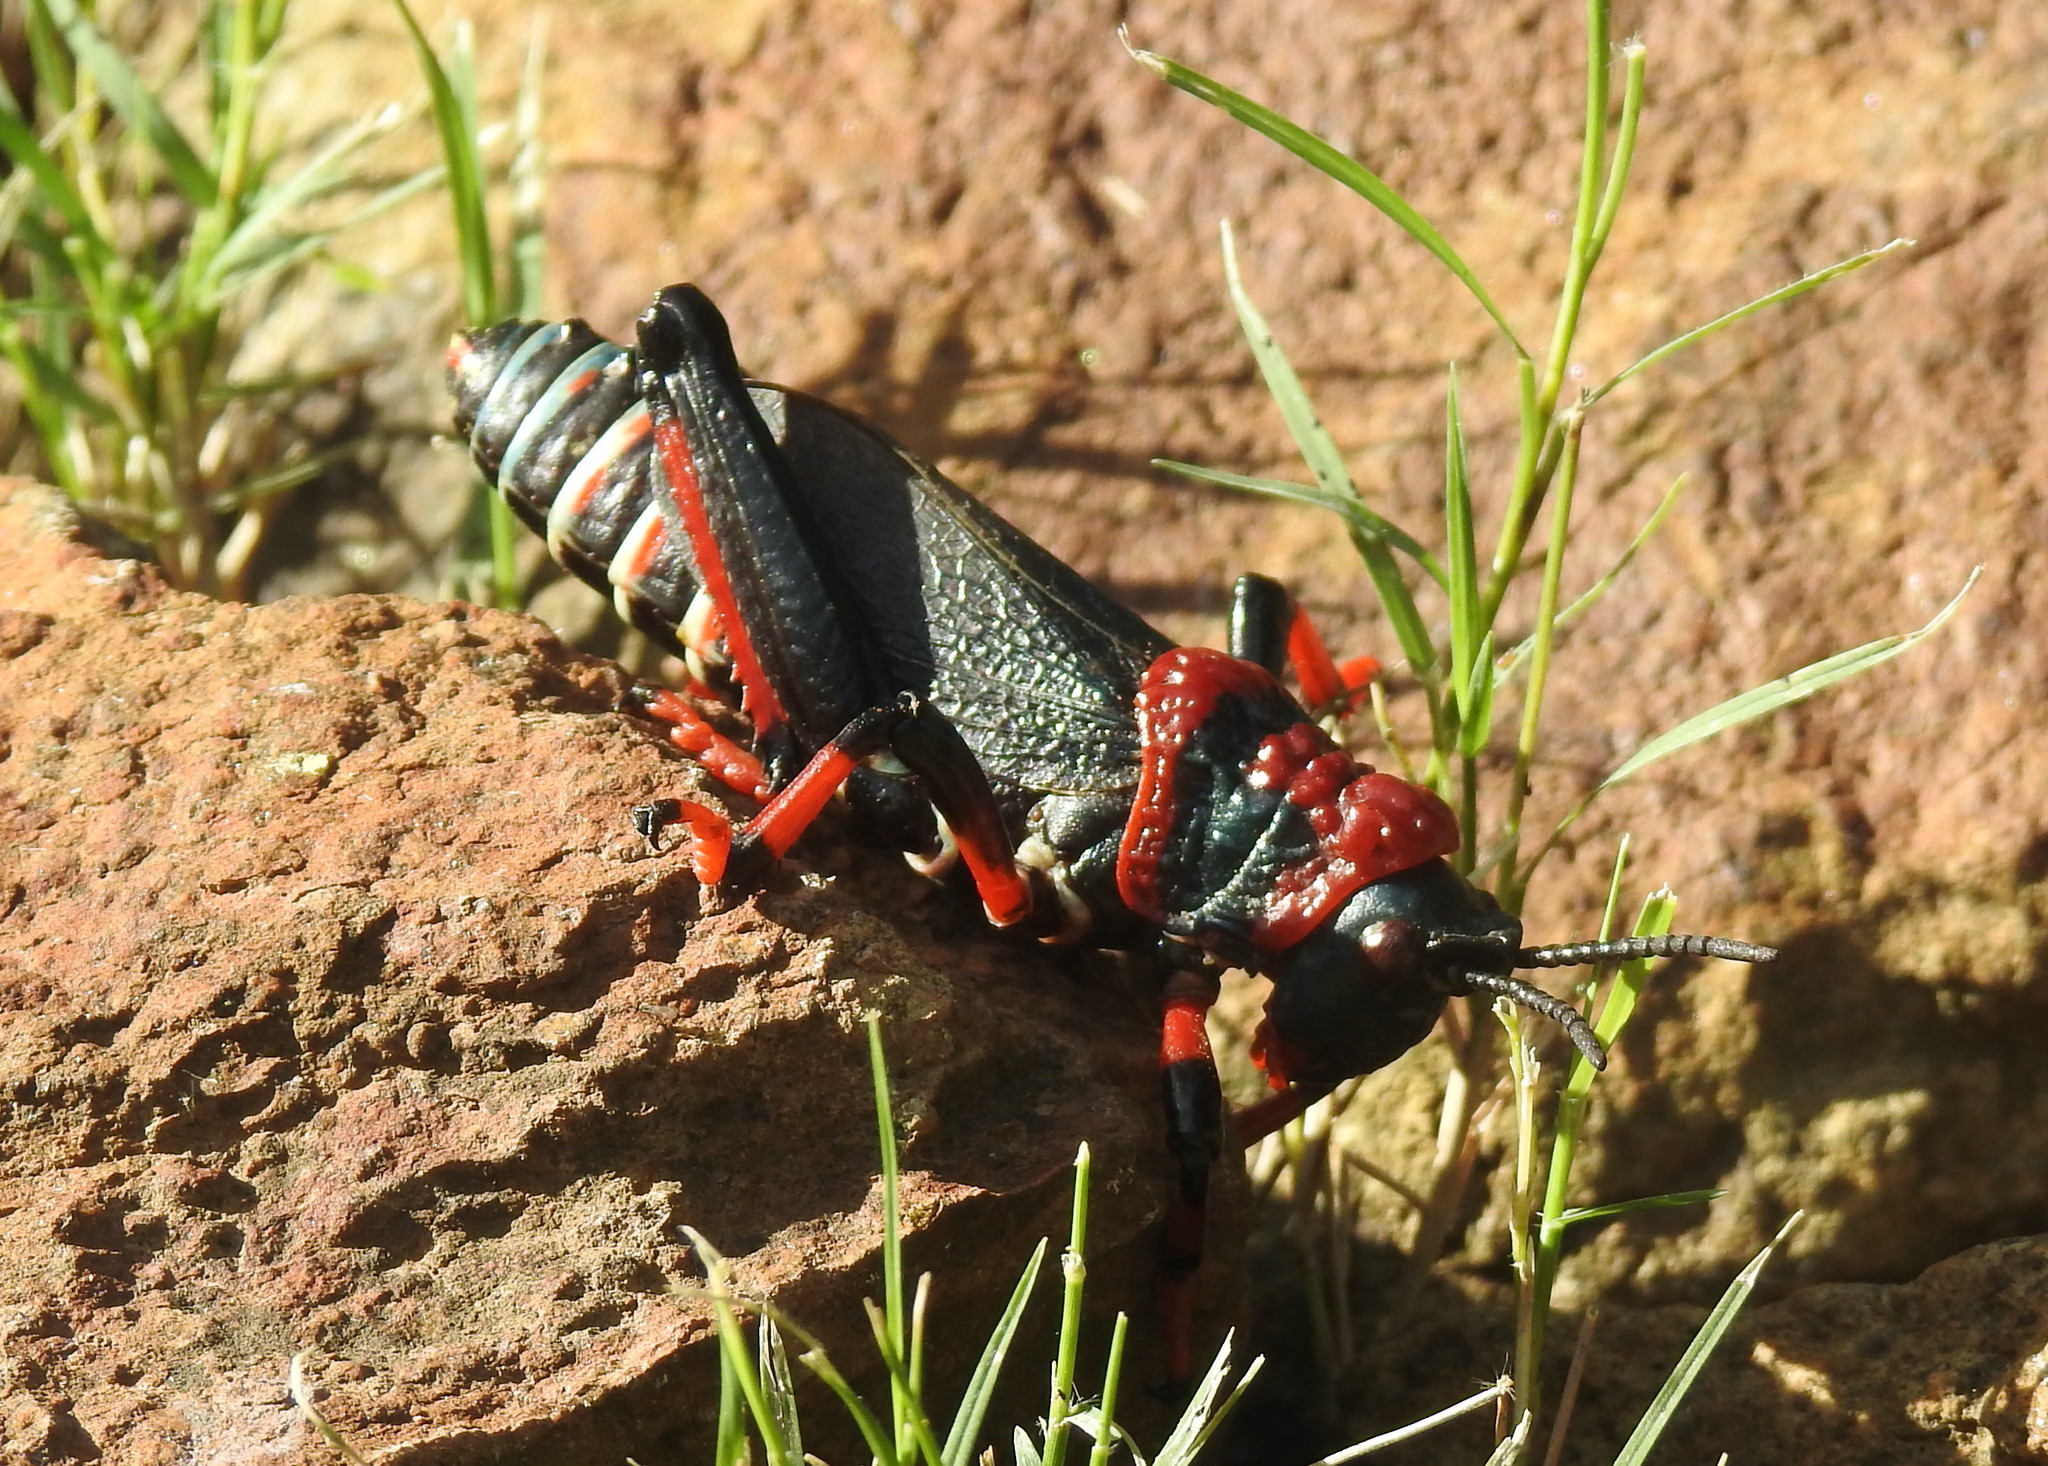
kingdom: Animalia
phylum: Arthropoda
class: Insecta
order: Orthoptera
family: Pyrgomorphidae
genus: Dictyophorus
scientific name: Dictyophorus spumans
